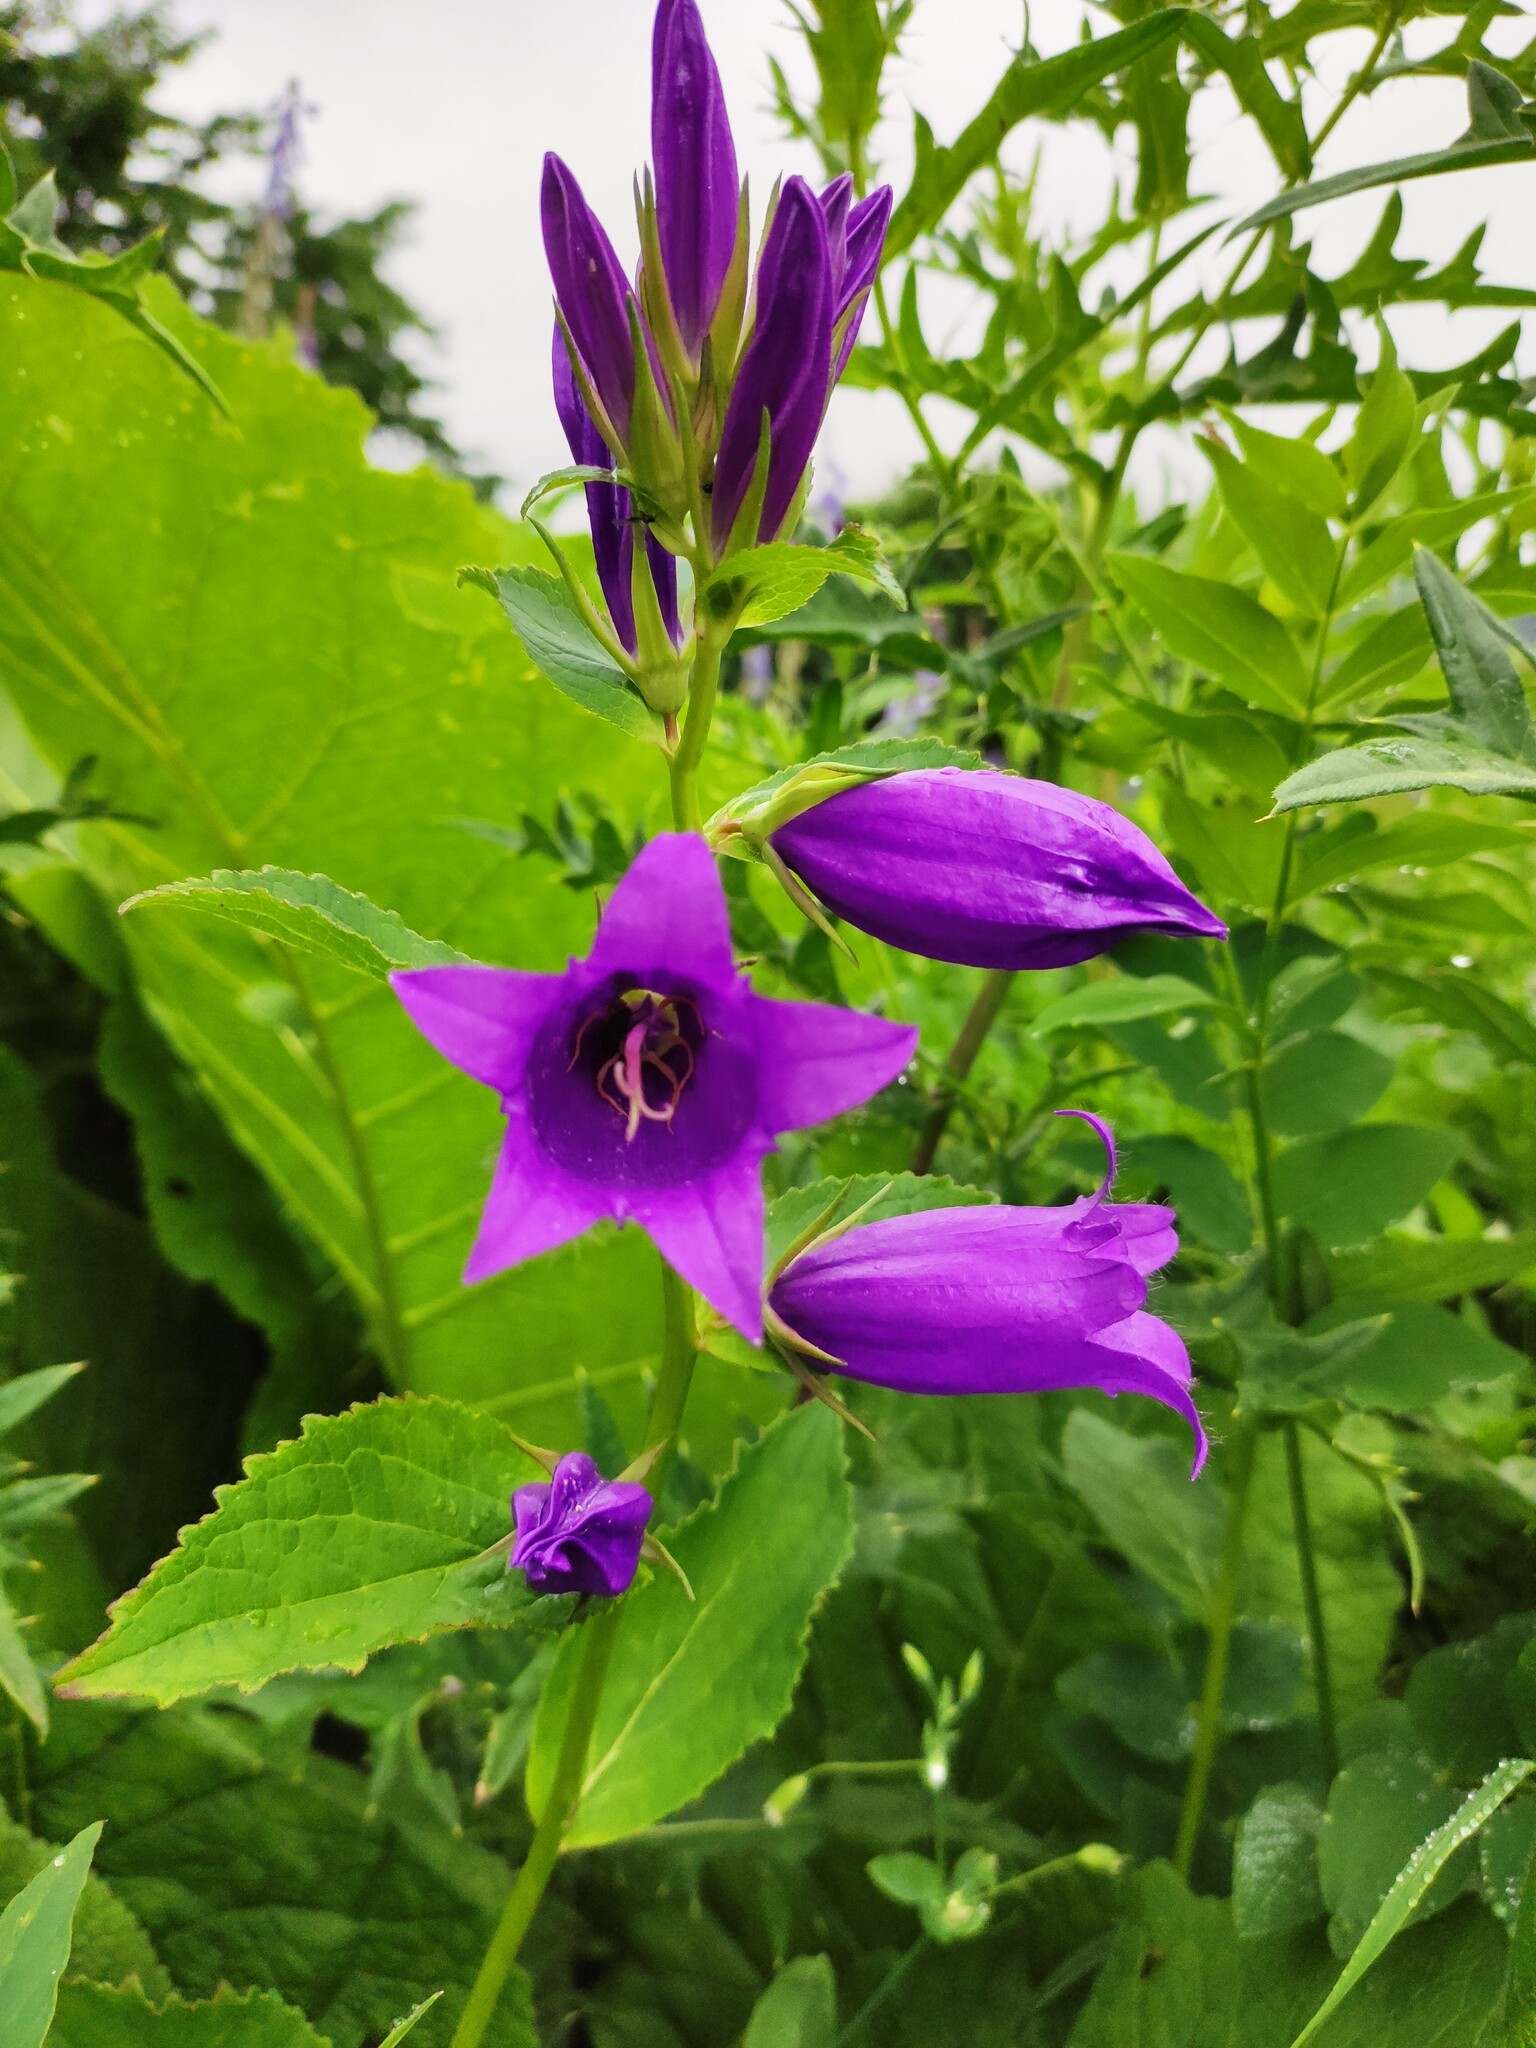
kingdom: Plantae
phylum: Tracheophyta
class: Magnoliopsida
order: Asterales
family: Campanulaceae
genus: Campanula
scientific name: Campanula latifolia
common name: Giant bellflower
